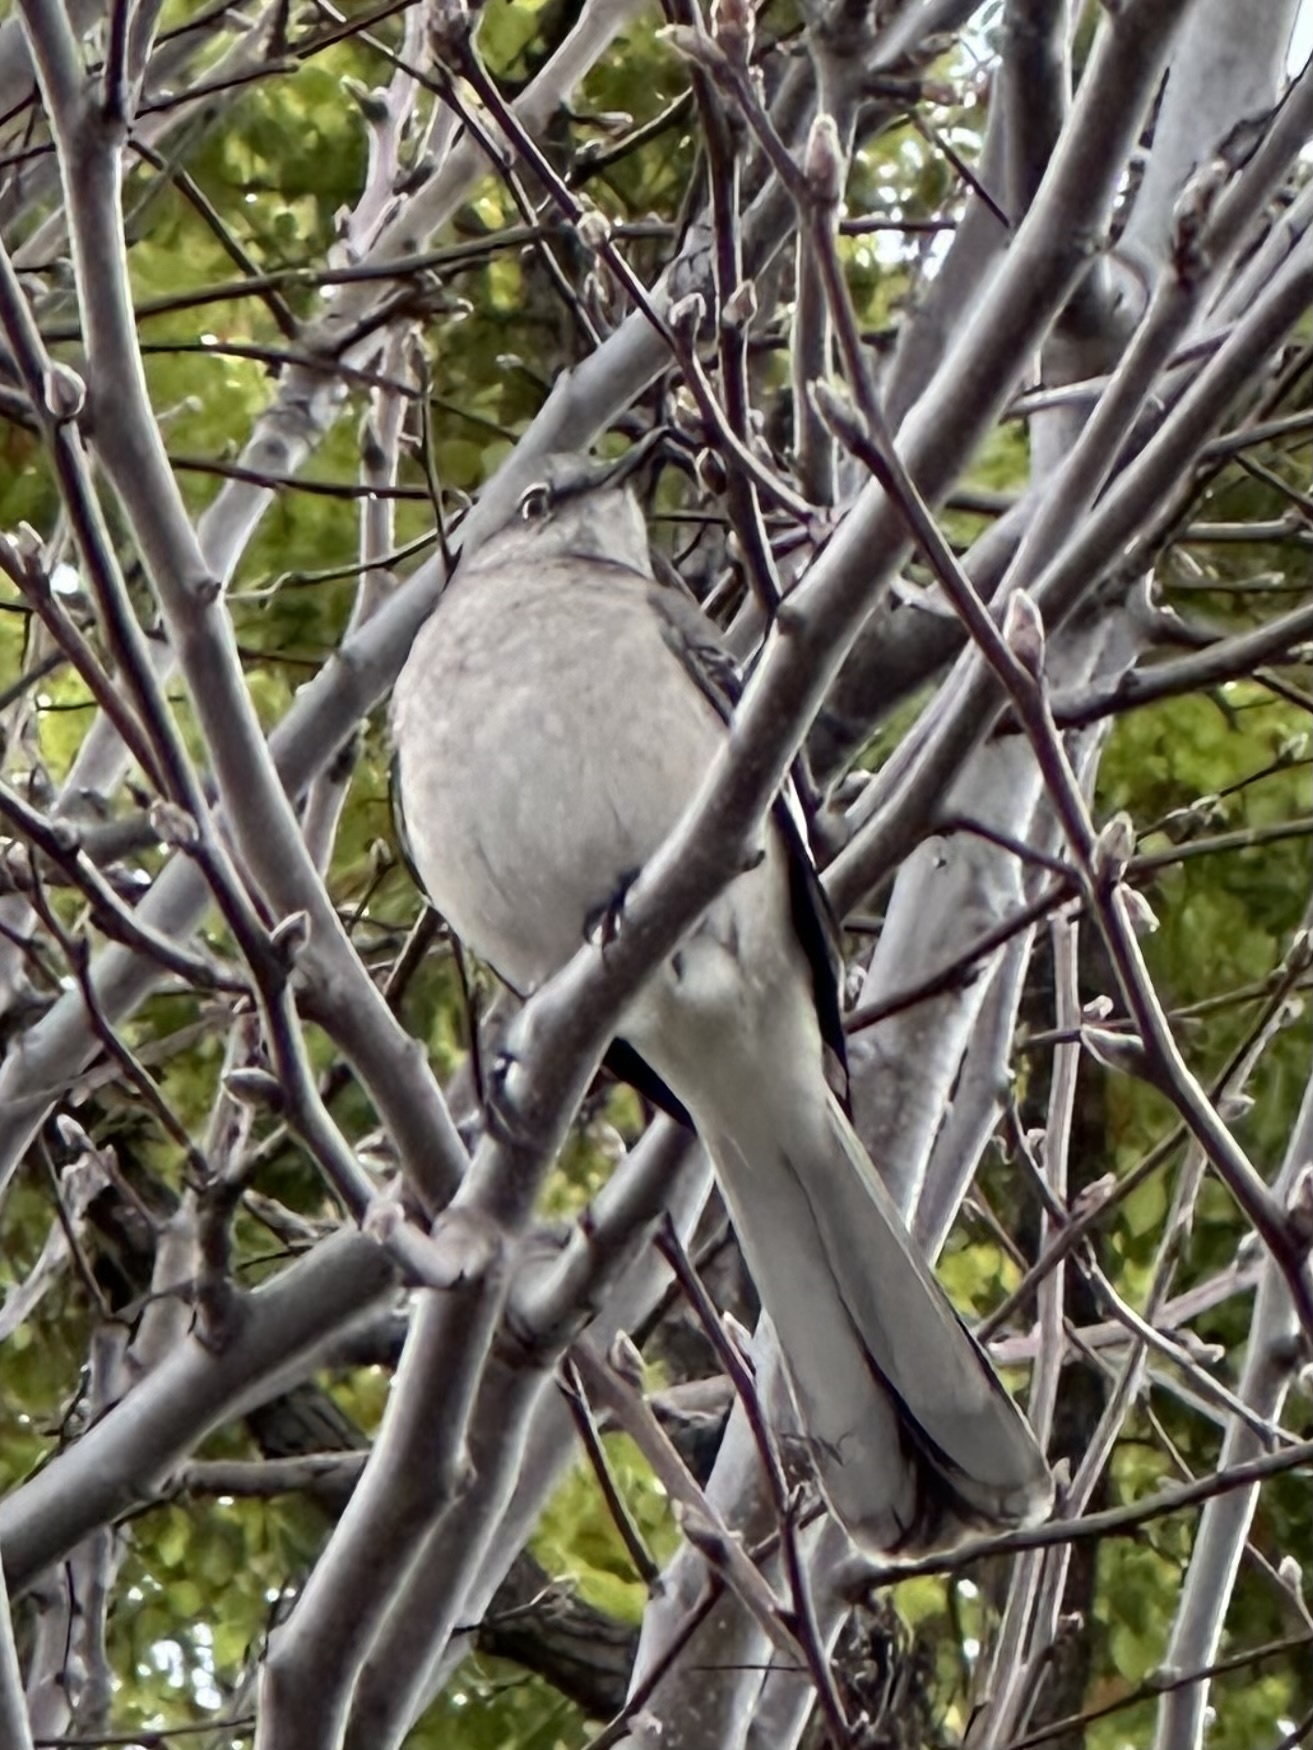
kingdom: Animalia
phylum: Chordata
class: Aves
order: Passeriformes
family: Mimidae
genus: Mimus
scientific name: Mimus polyglottos
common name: Northern mockingbird
